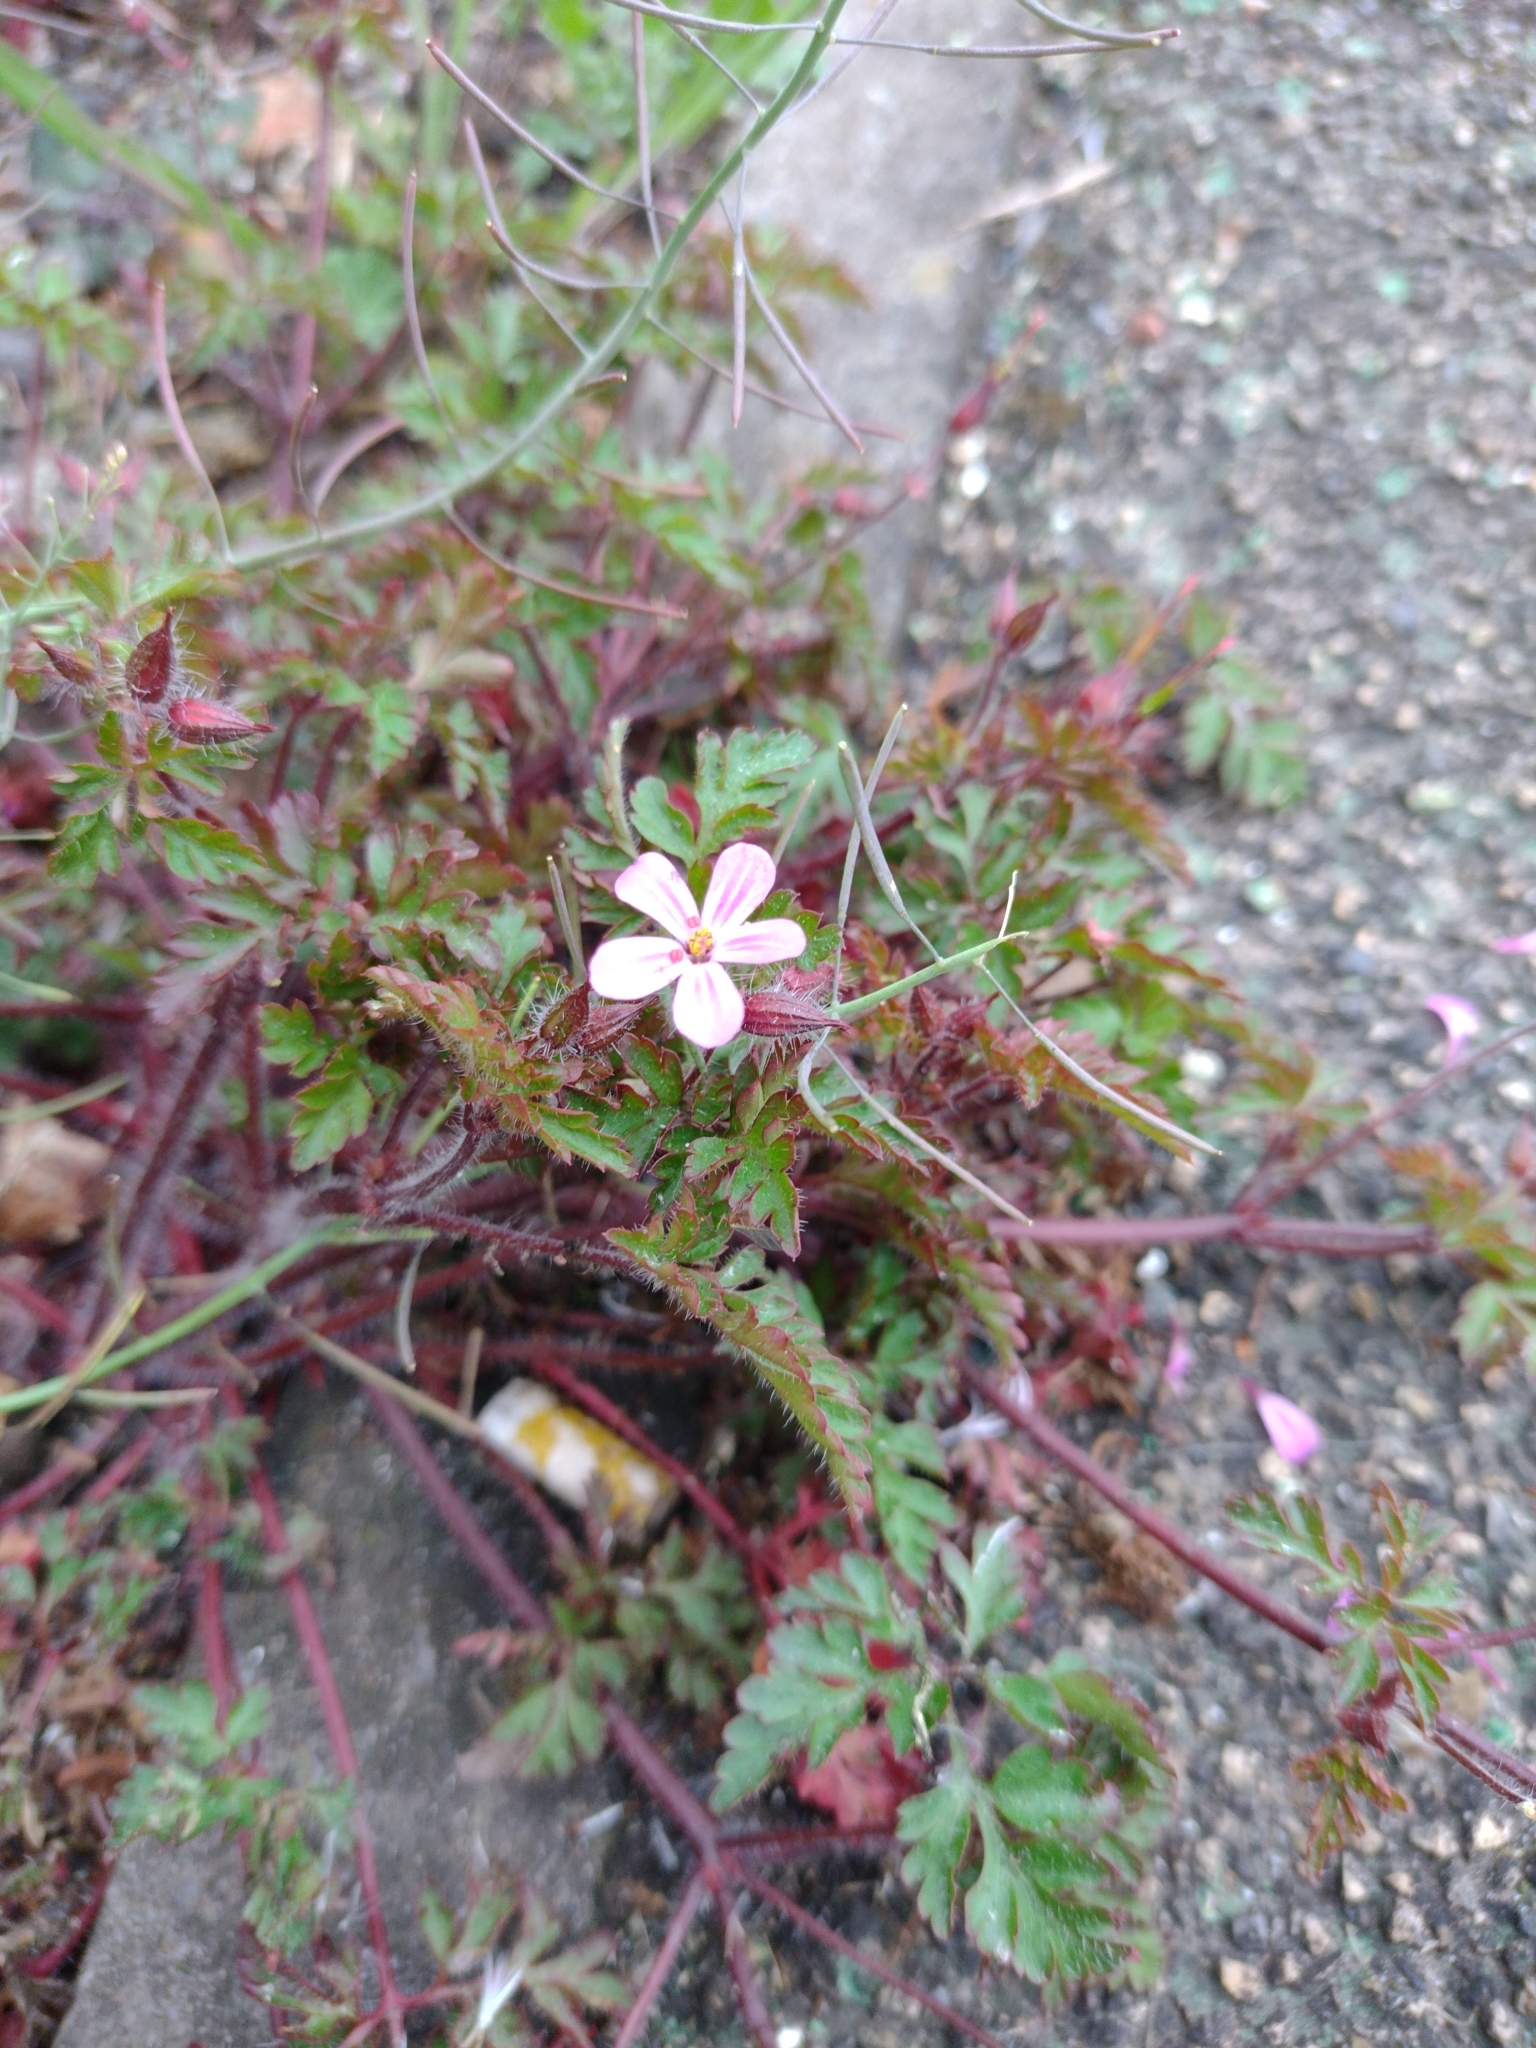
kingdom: Plantae
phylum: Tracheophyta
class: Magnoliopsida
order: Geraniales
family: Geraniaceae
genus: Geranium
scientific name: Geranium robertianum
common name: Herb-robert
